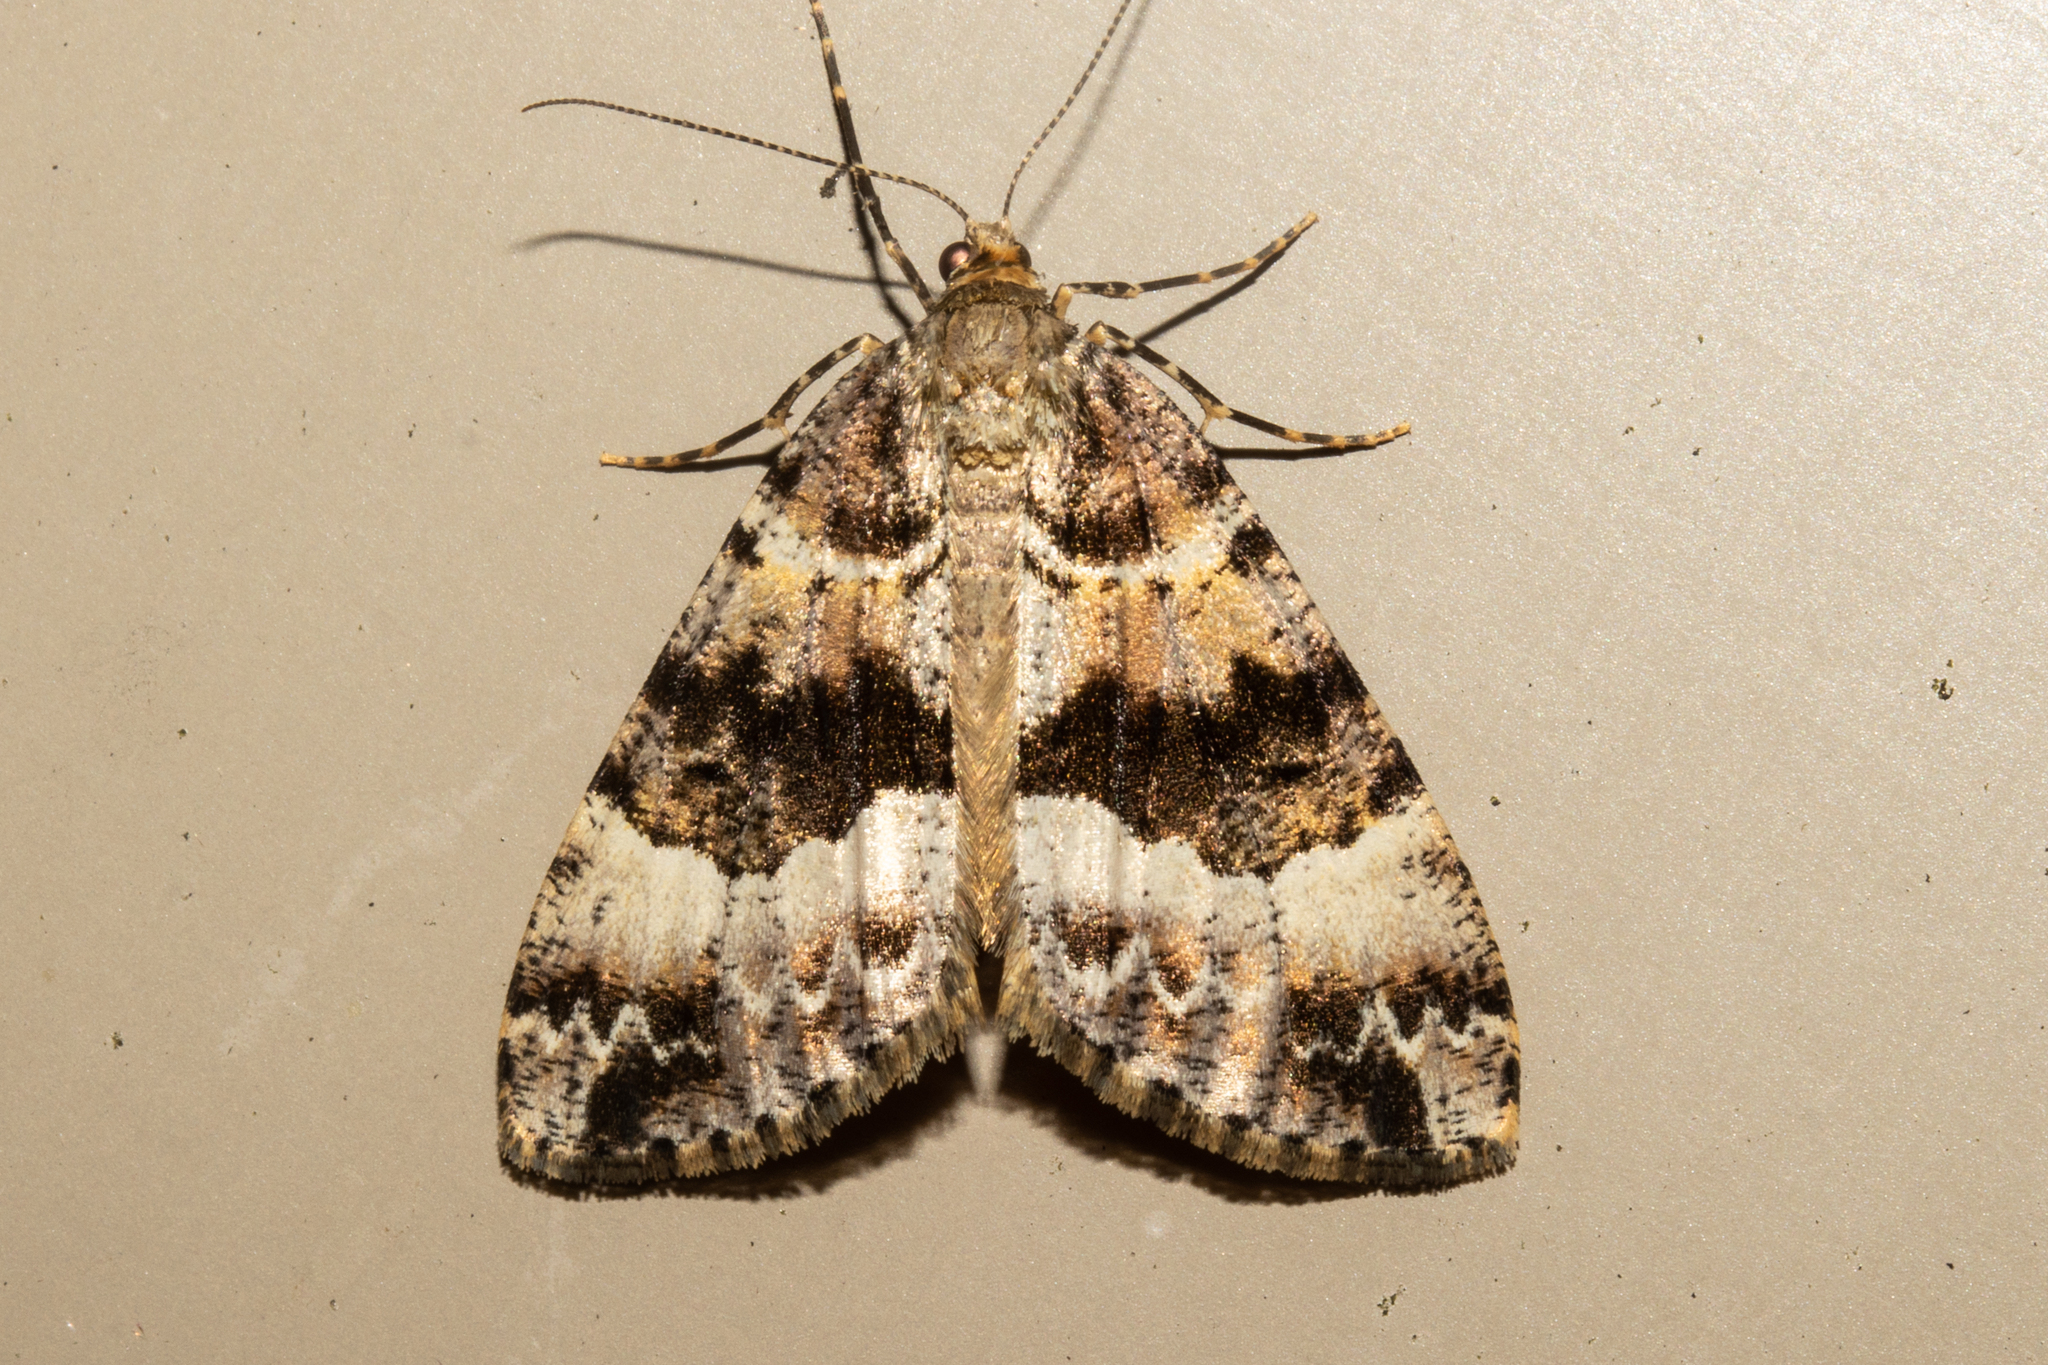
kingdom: Animalia
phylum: Arthropoda
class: Insecta
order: Lepidoptera
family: Geometridae
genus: Pseudocoremia
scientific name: Pseudocoremia productata
